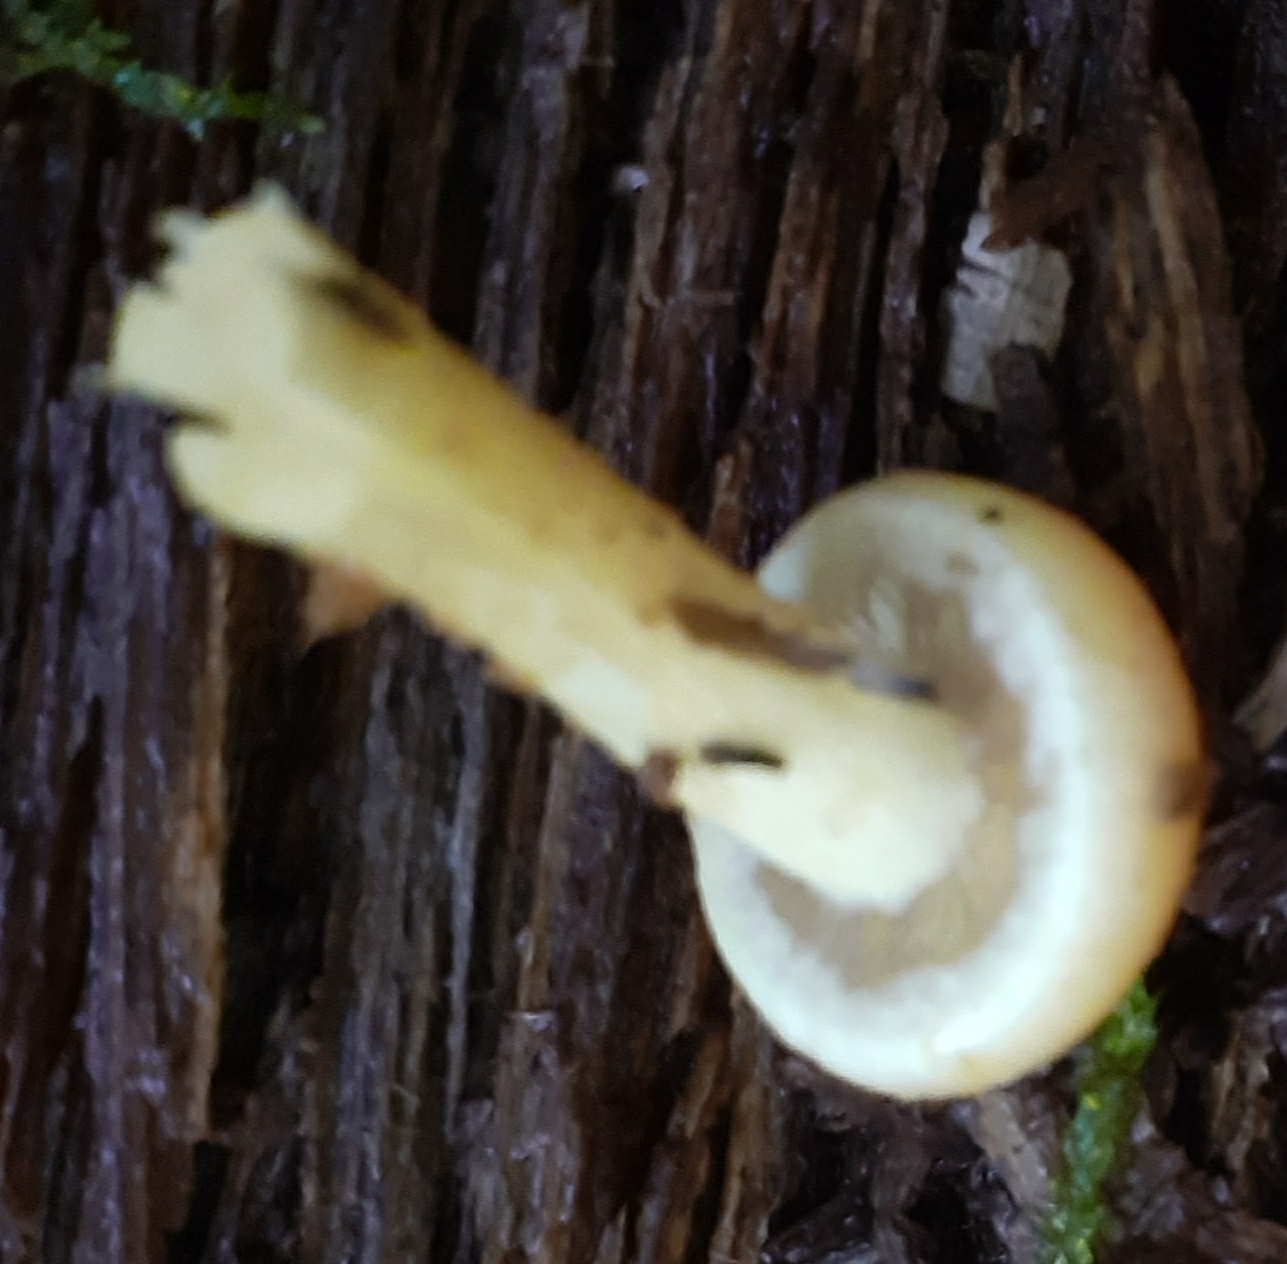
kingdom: Fungi
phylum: Basidiomycota
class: Agaricomycetes
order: Agaricales
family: Strophariaceae
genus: Hypholoma
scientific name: Hypholoma fasciculare
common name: Sulphur tuft
